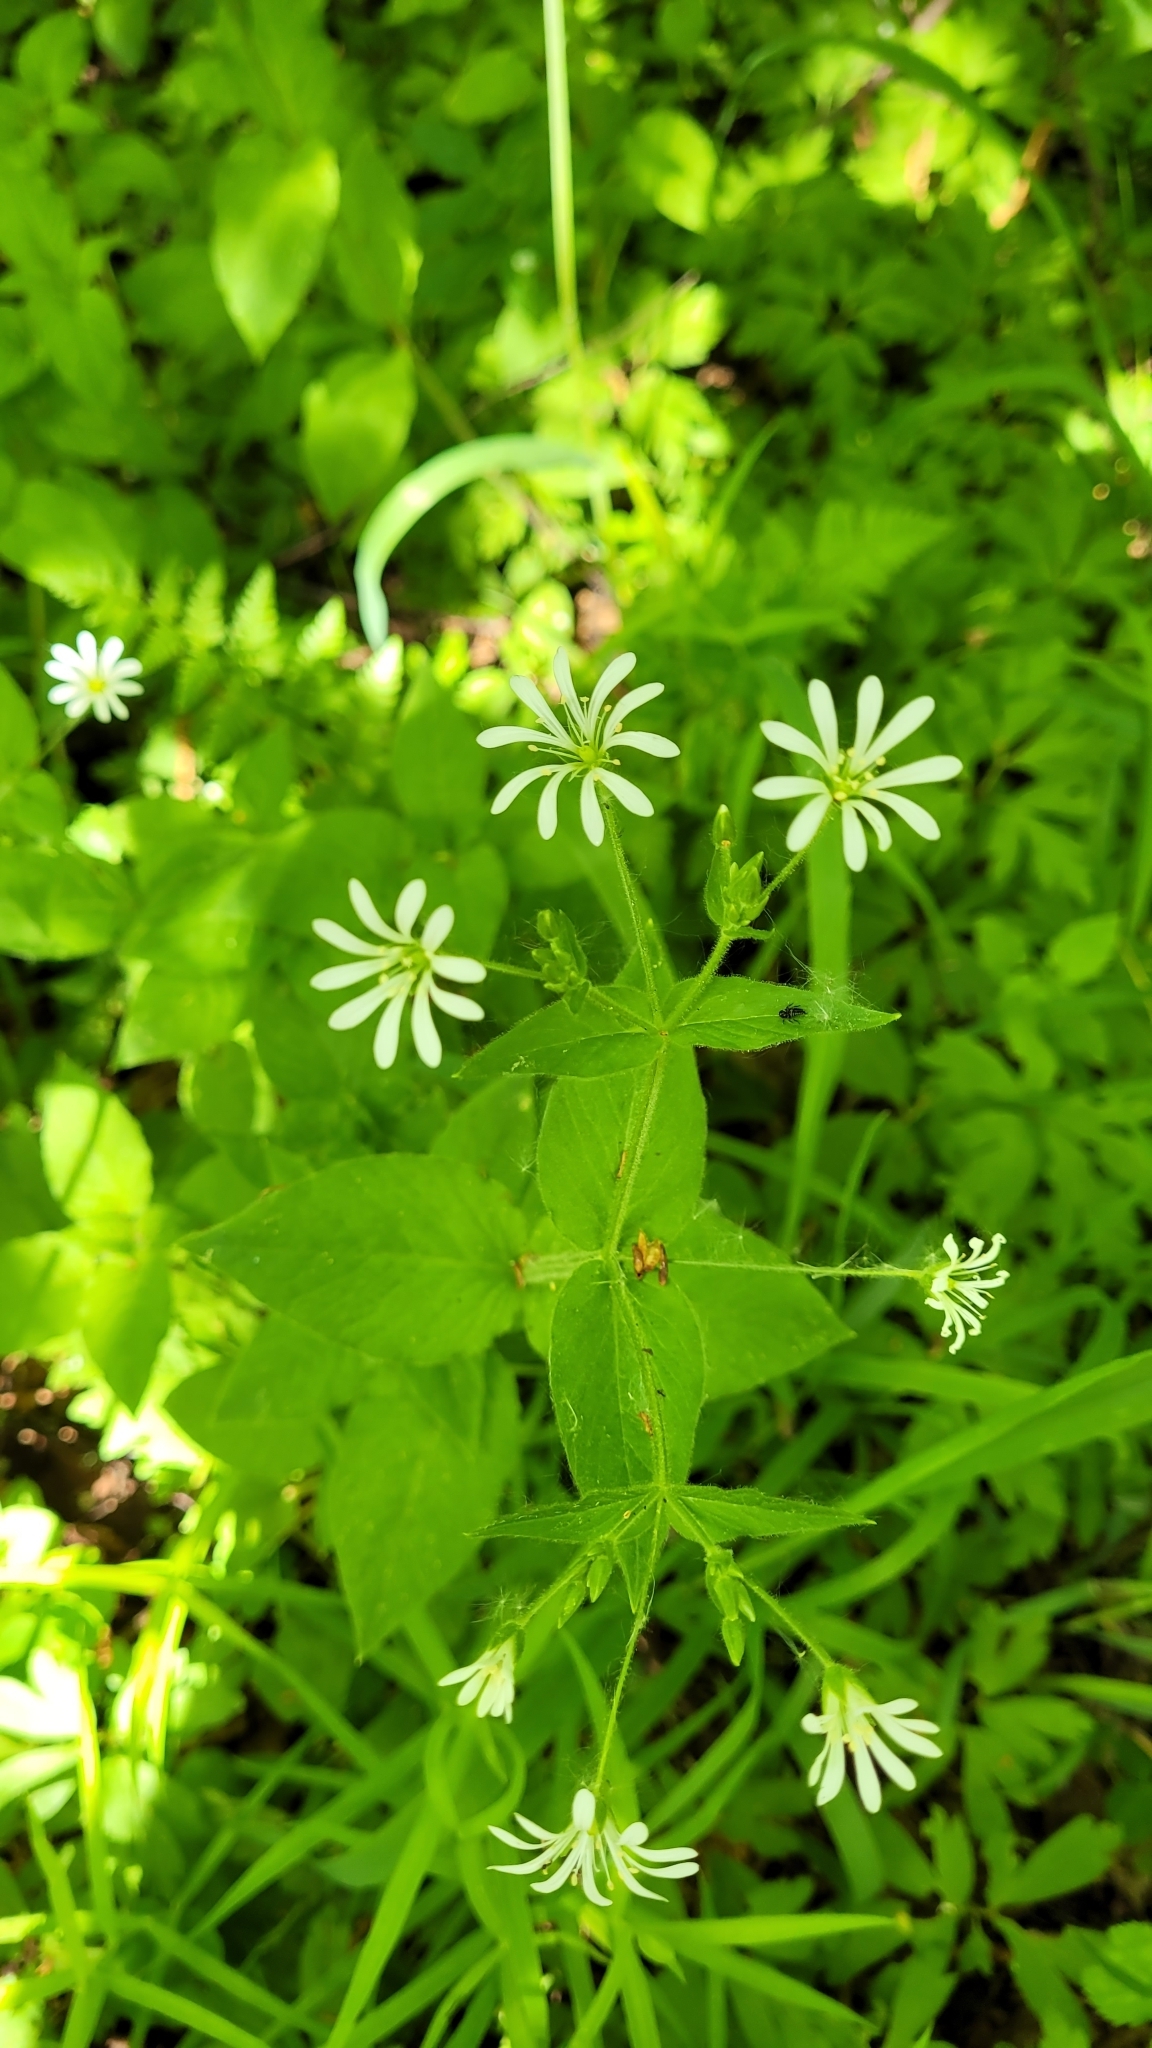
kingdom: Plantae
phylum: Tracheophyta
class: Magnoliopsida
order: Caryophyllales
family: Caryophyllaceae
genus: Stellaria
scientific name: Stellaria nemorum
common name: Wood stitchwort
